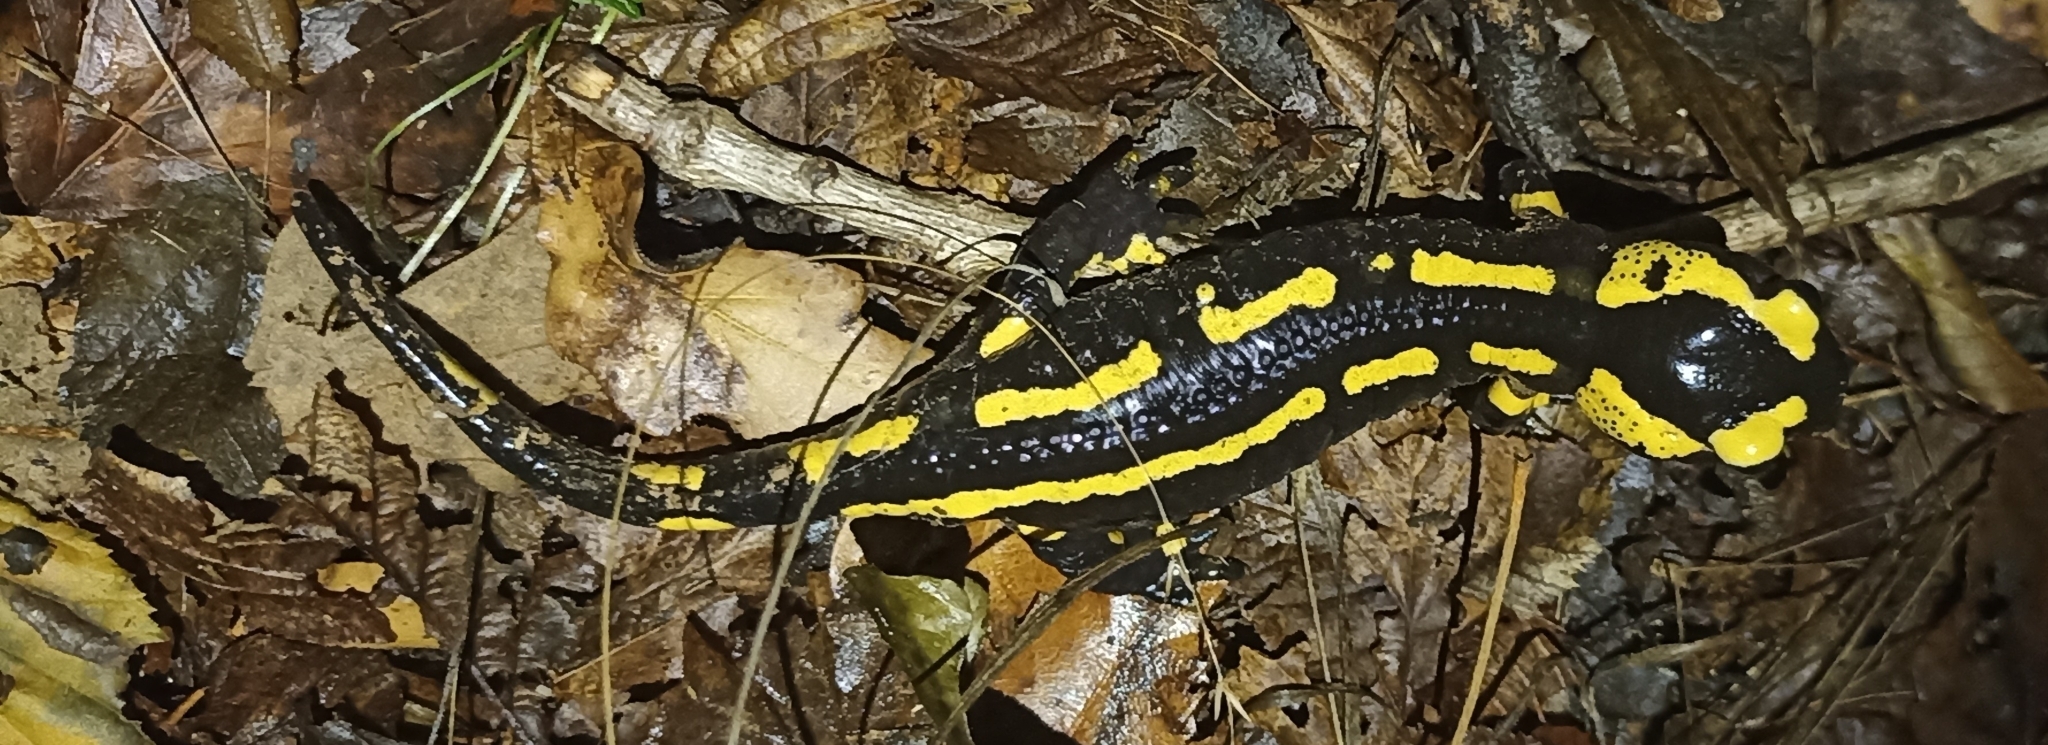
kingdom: Animalia
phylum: Chordata
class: Amphibia
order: Caudata
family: Salamandridae
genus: Salamandra
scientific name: Salamandra salamandra
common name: Fire salamander
